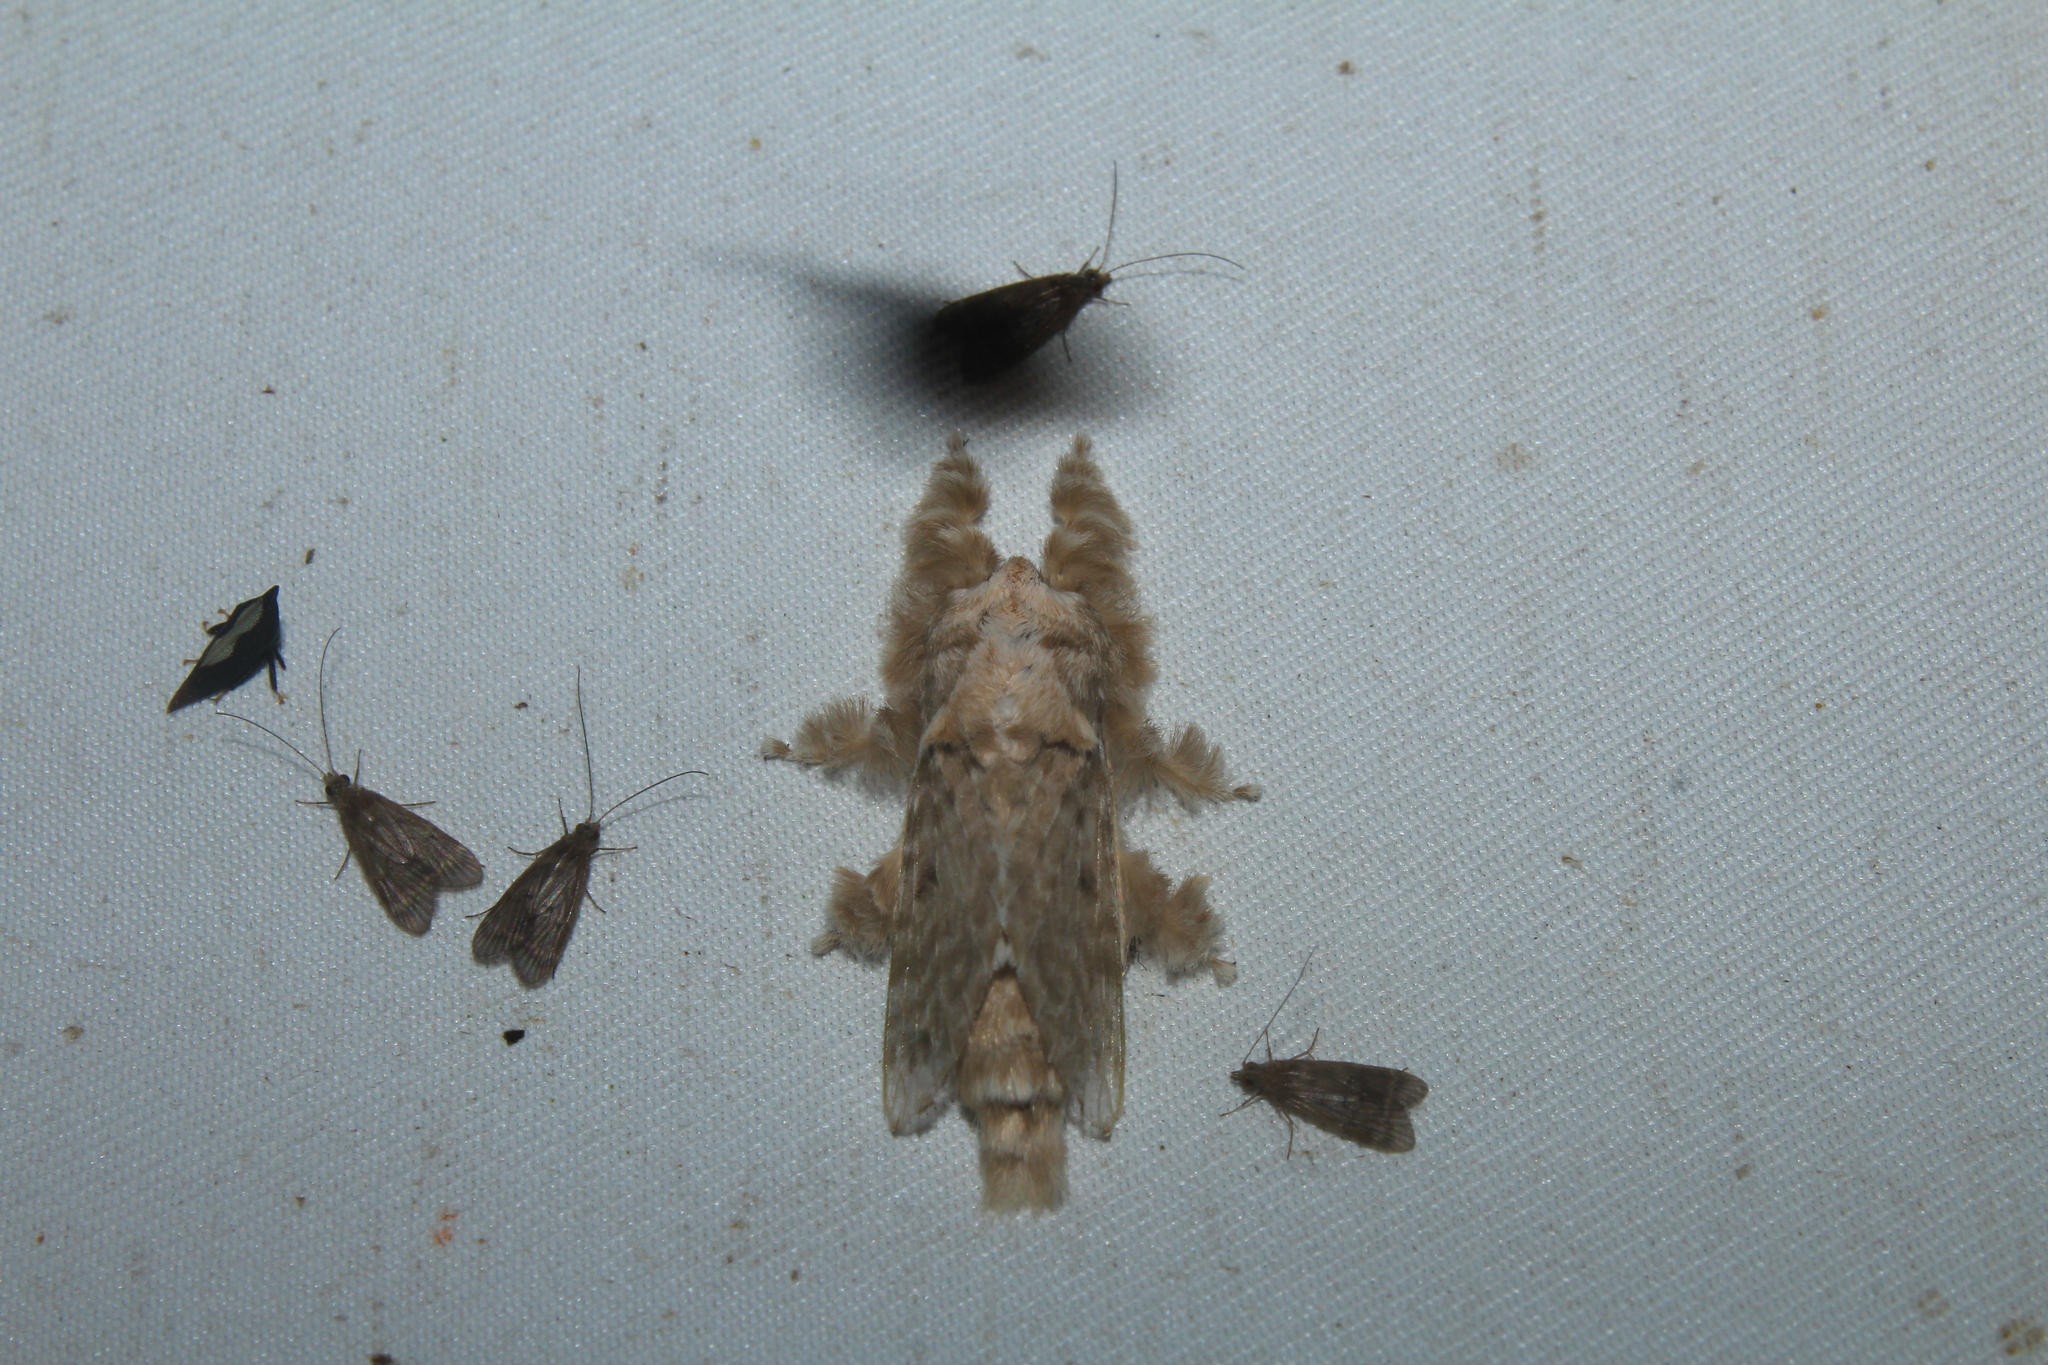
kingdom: Animalia
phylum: Arthropoda
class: Insecta
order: Lepidoptera
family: Lasiocampidae
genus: Titya
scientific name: Titya rivulosa
